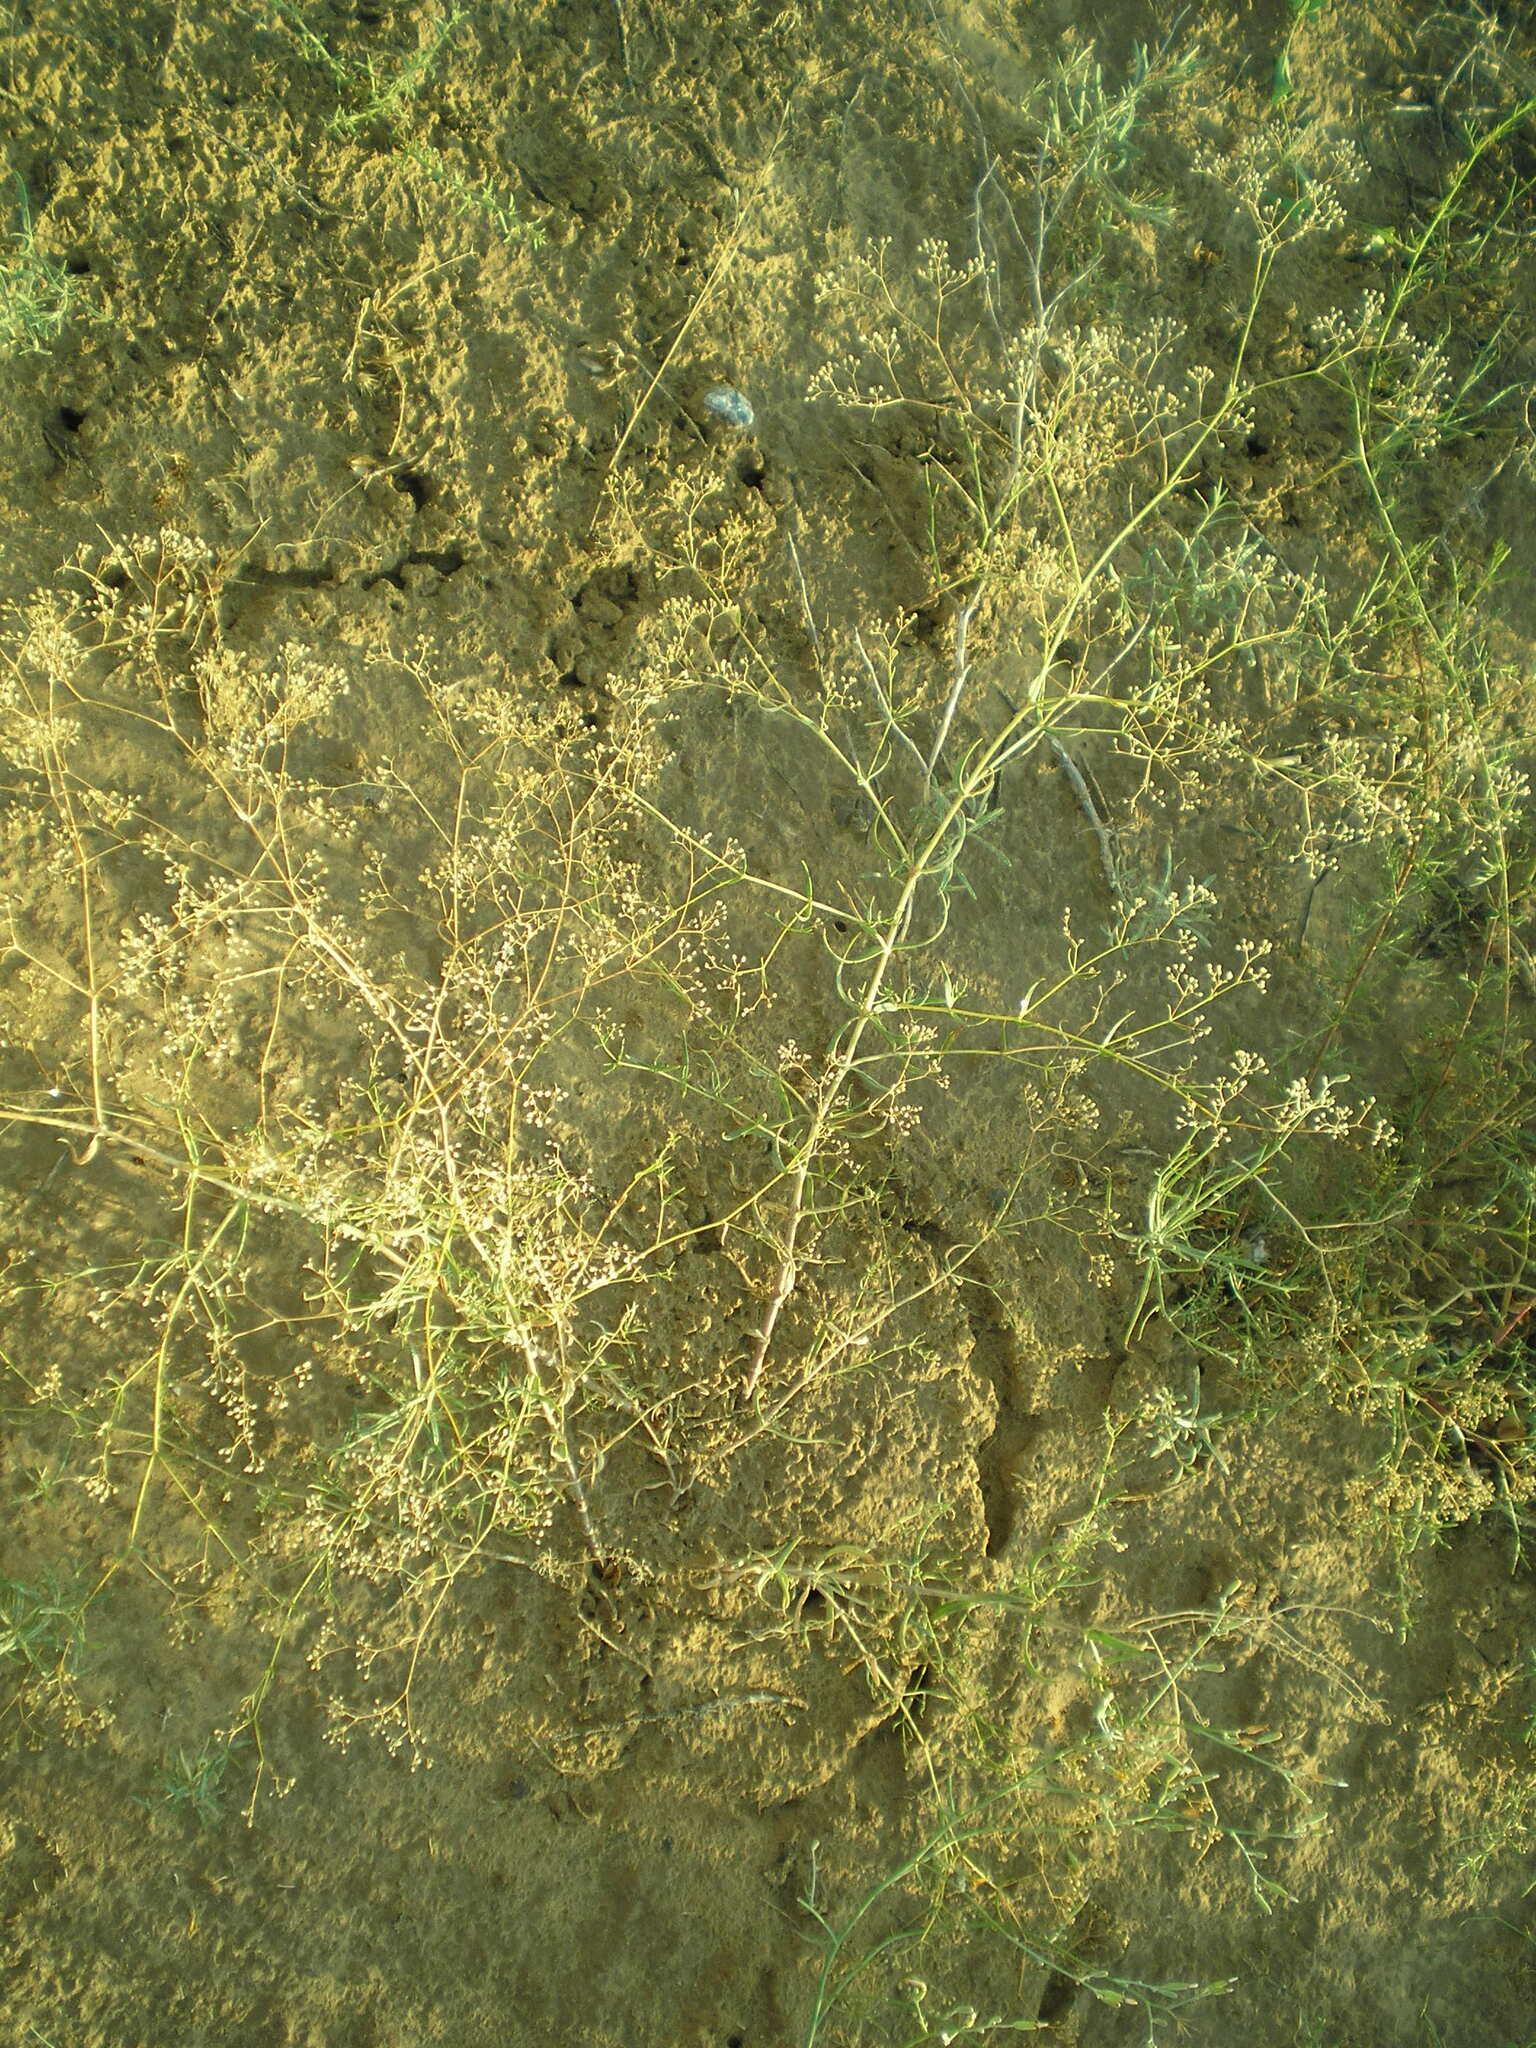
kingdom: Plantae
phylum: Tracheophyta
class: Magnoliopsida
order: Caryophyllales
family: Caryophyllaceae
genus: Gypsophila
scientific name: Gypsophila paniculata
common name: Baby's-breath
